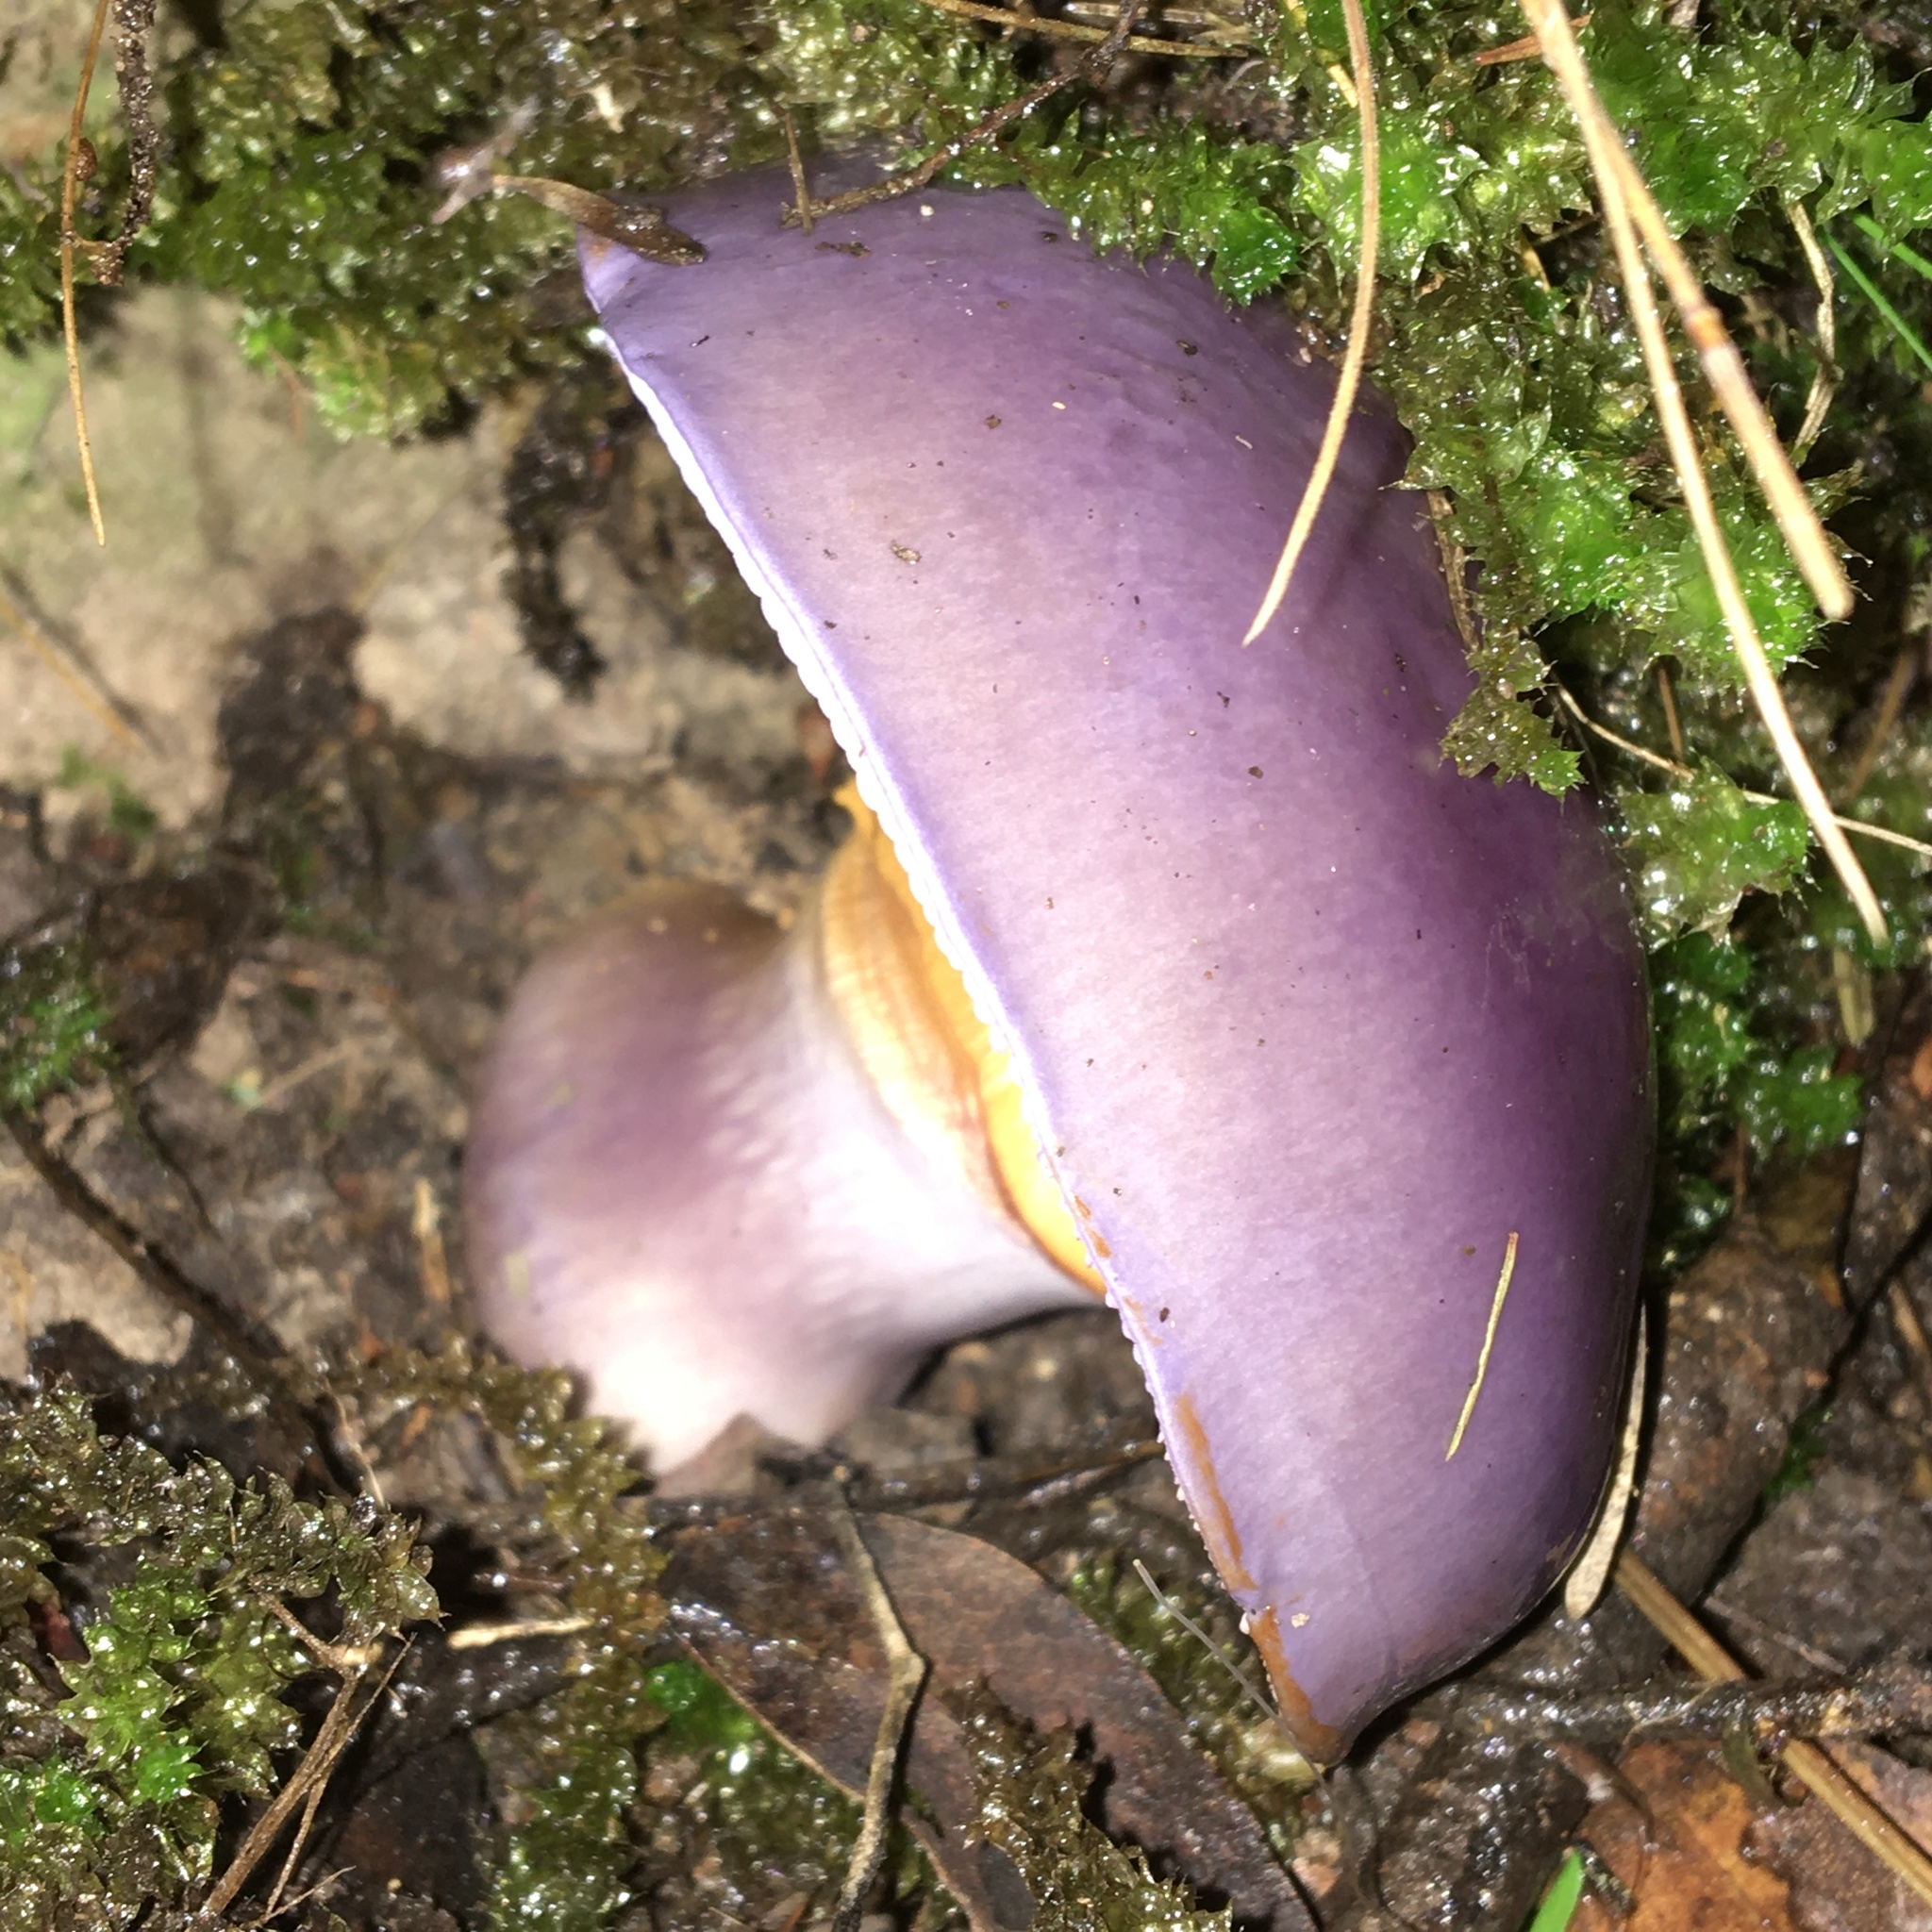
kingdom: Fungi
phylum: Basidiomycota
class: Agaricomycetes
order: Agaricales
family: Cortinariaceae
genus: Cortinarius
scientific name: Cortinarius archeri
